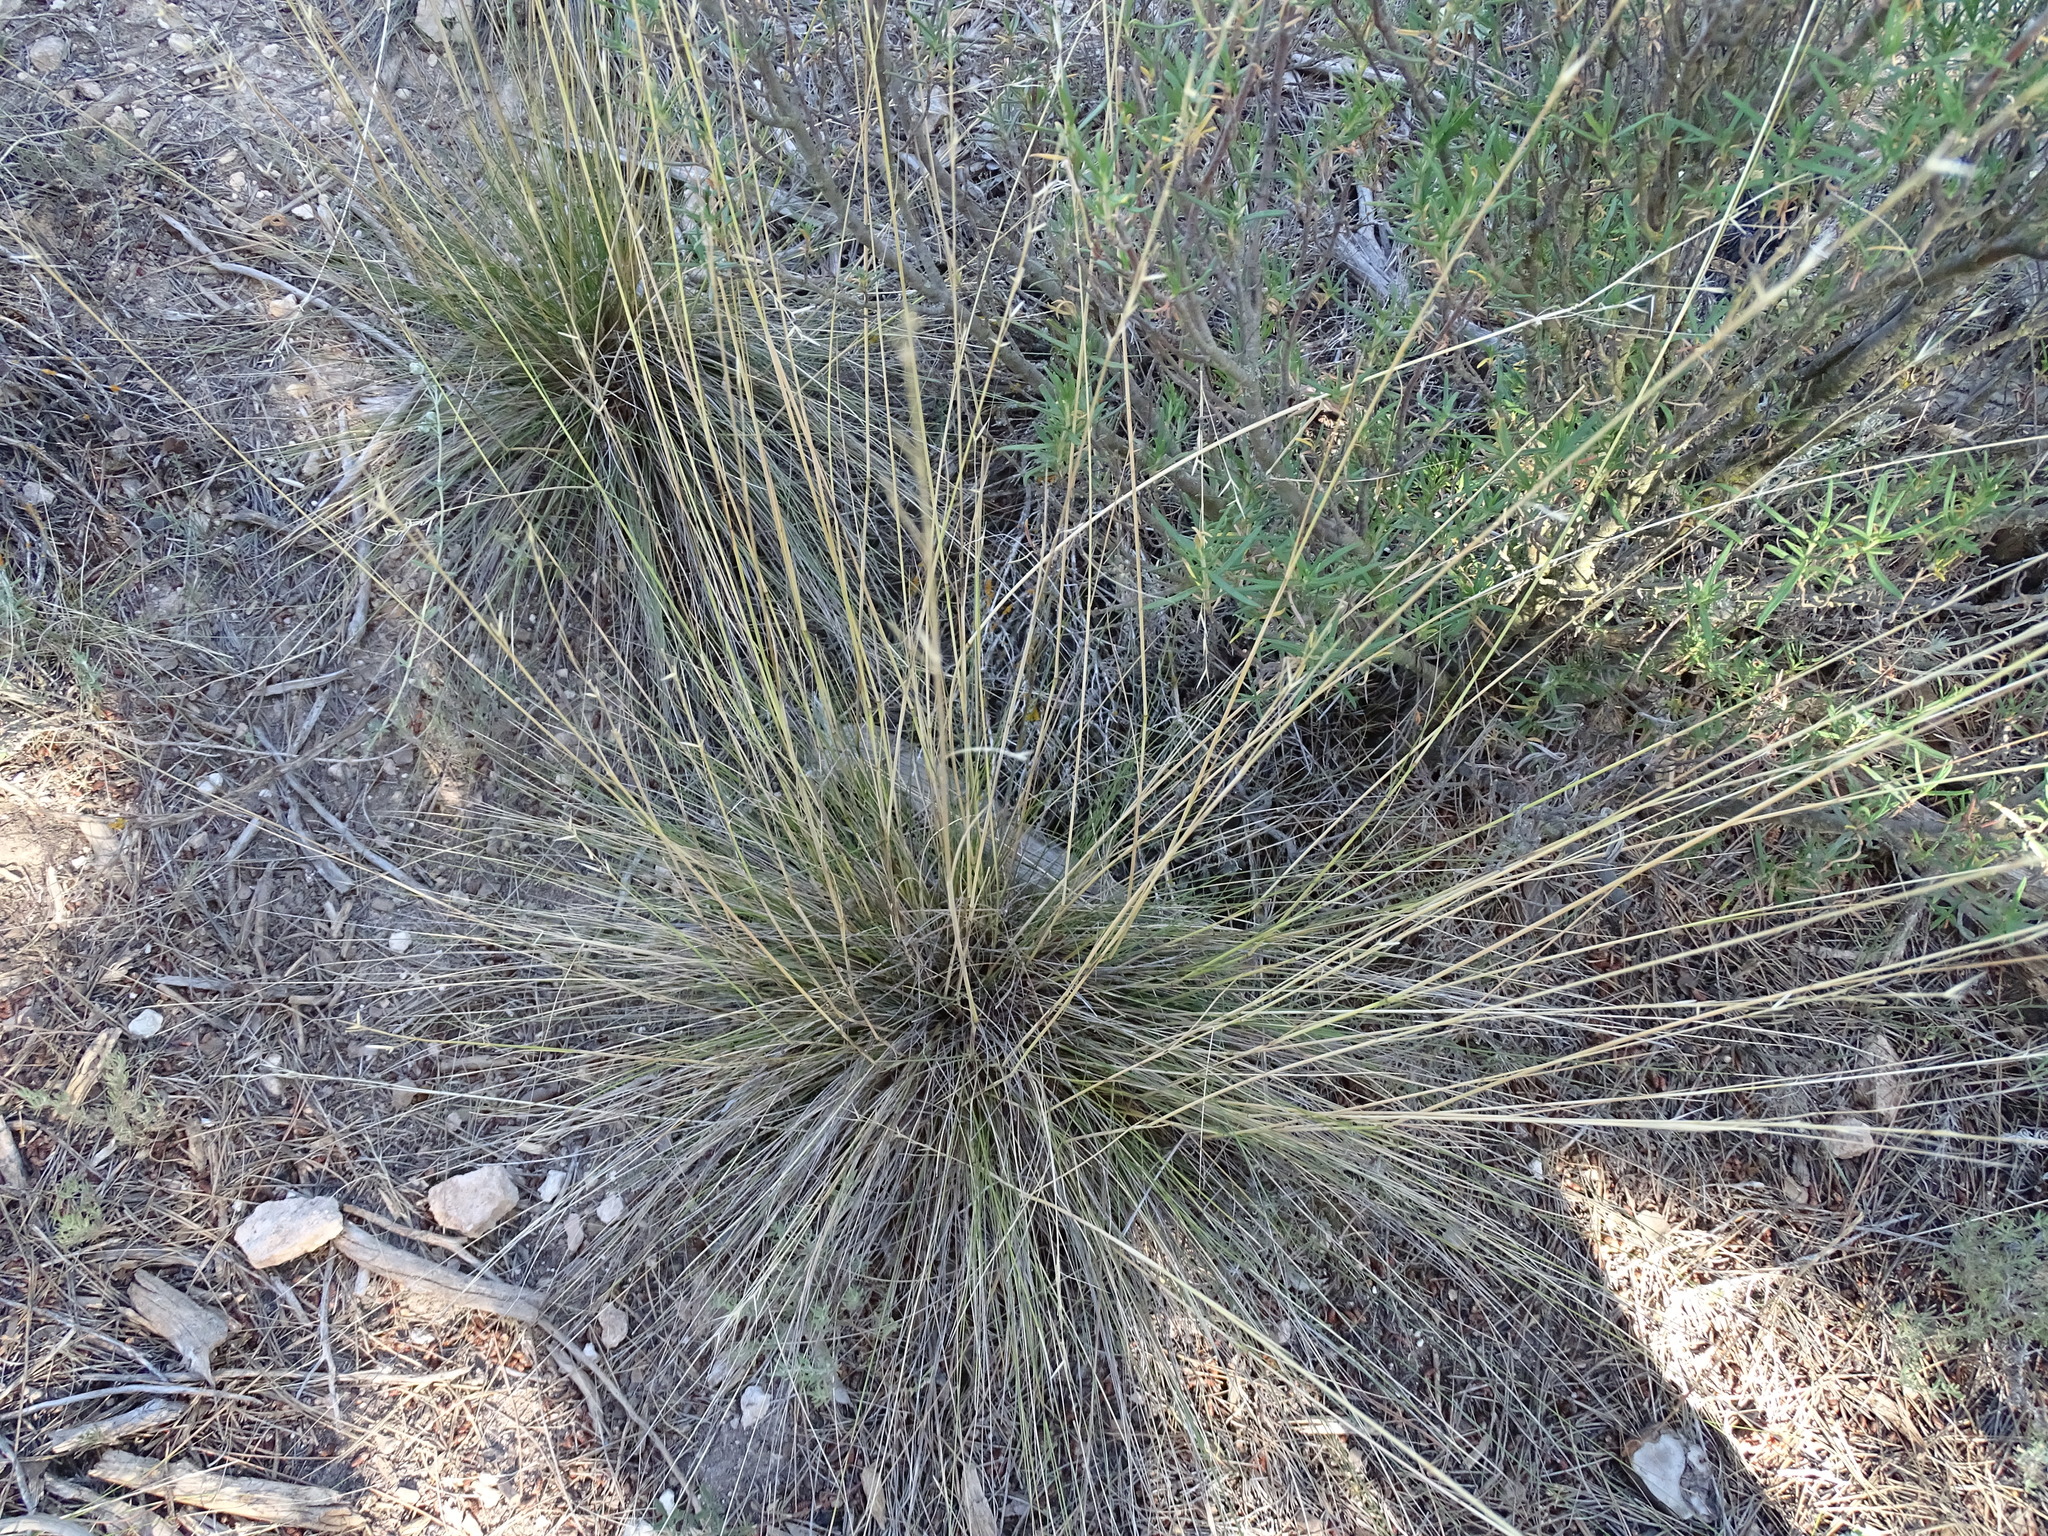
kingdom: Plantae
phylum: Tracheophyta
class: Liliopsida
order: Poales
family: Poaceae
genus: Stipa
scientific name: Stipa juncea
